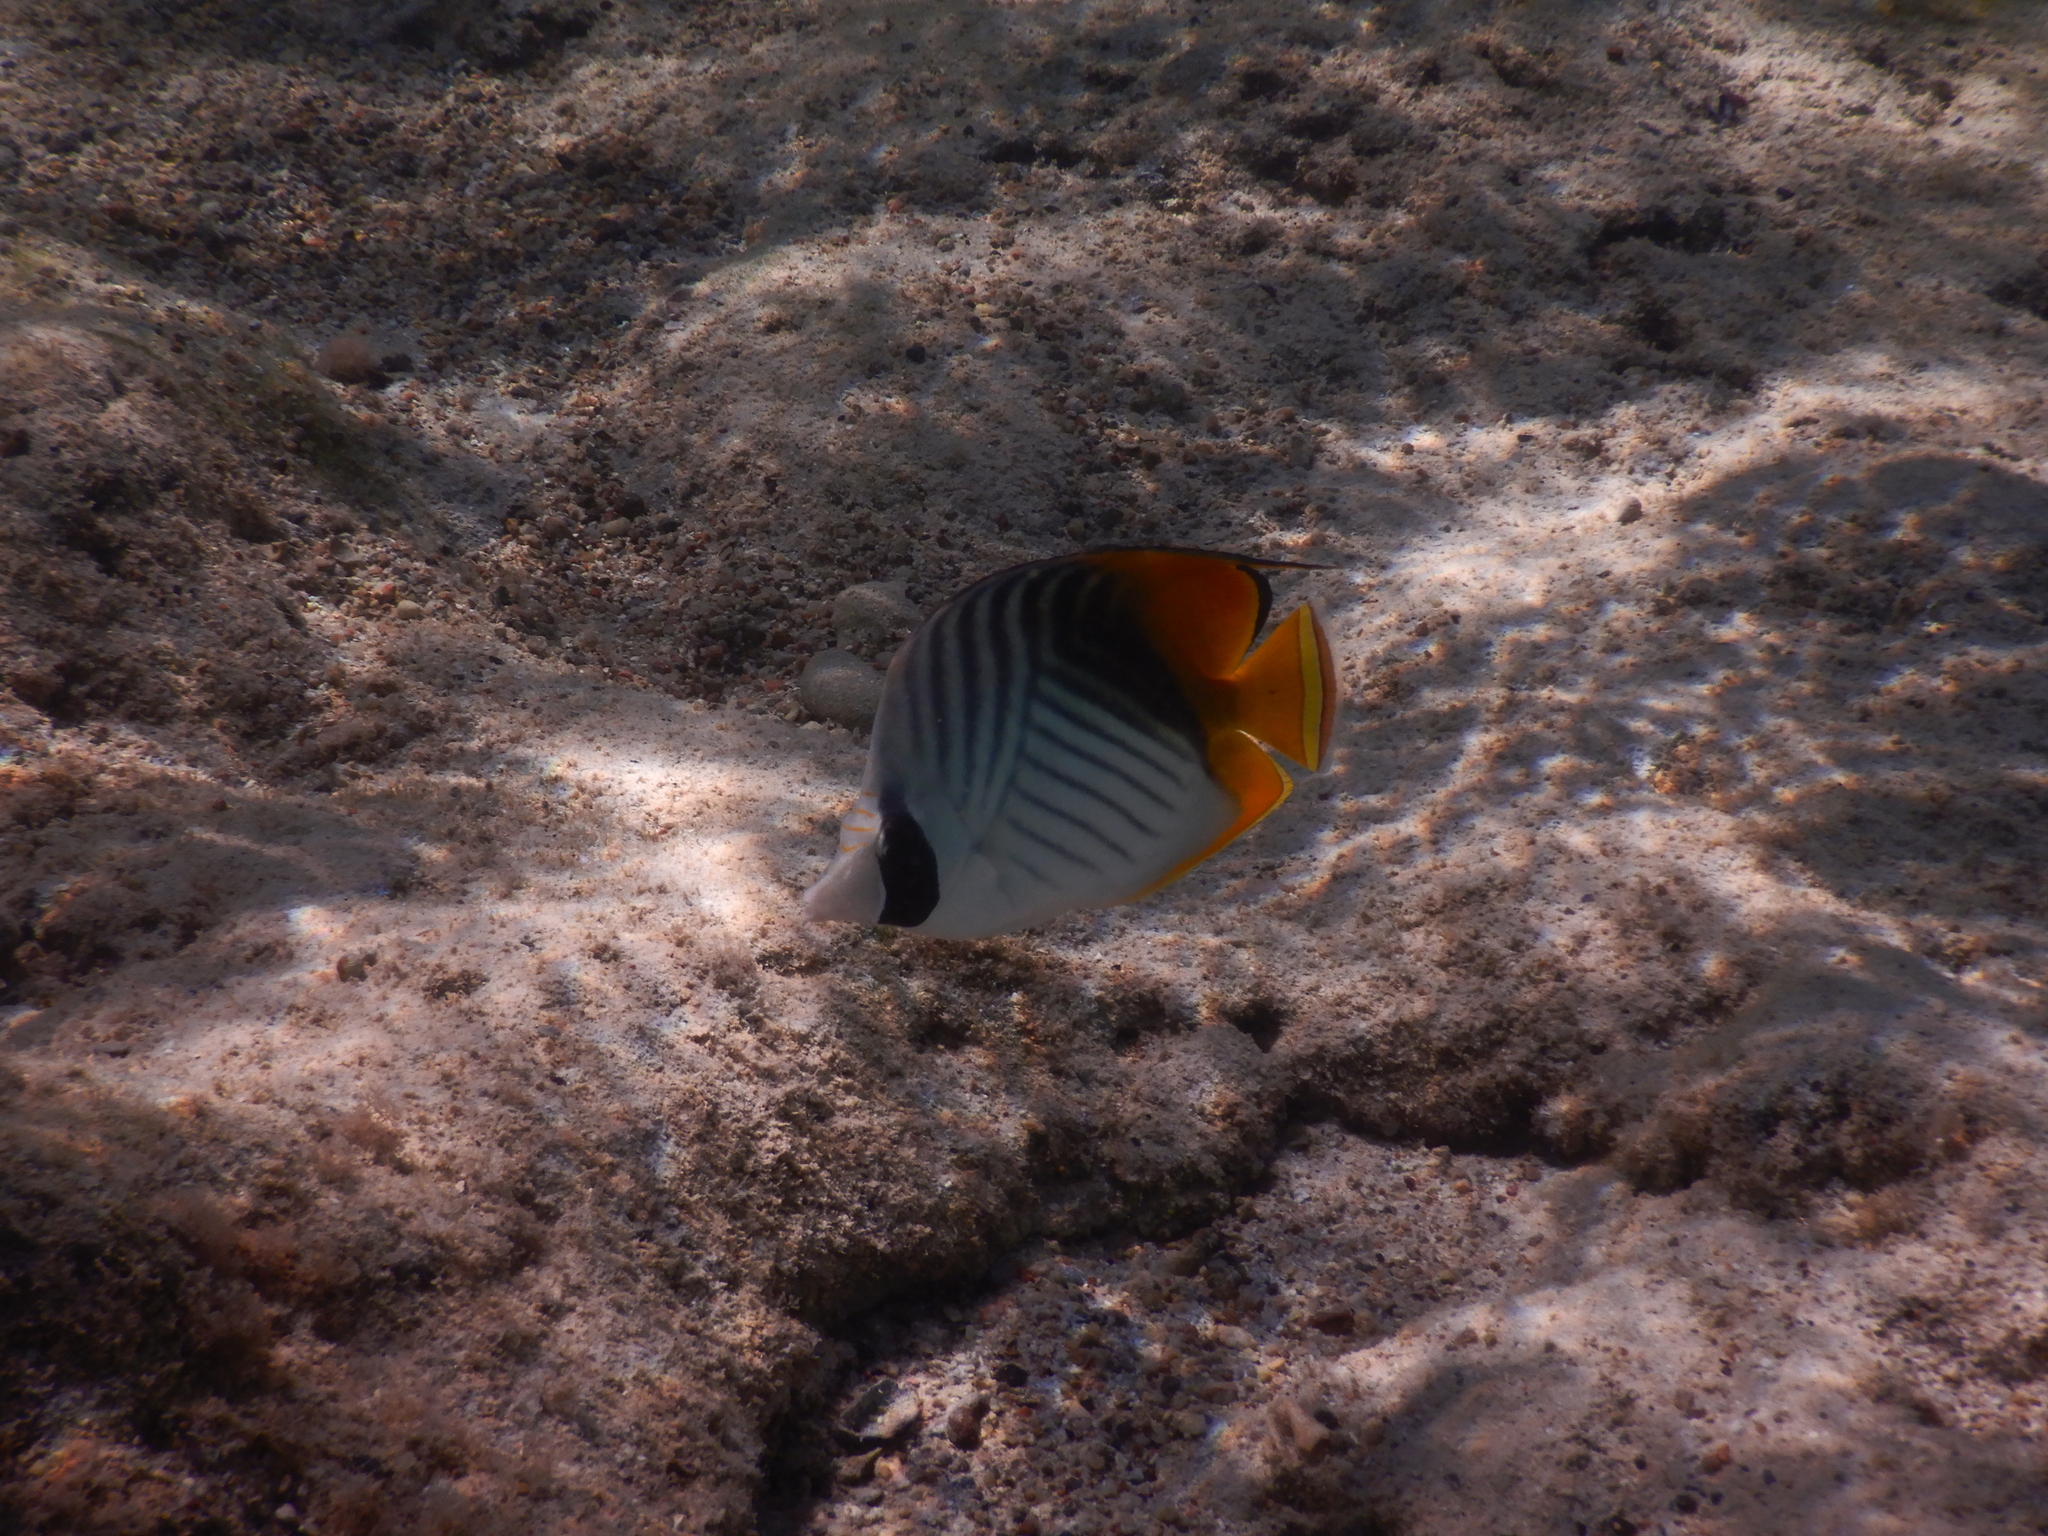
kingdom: Animalia
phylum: Chordata
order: Perciformes
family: Chaetodontidae
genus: Chaetodon
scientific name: Chaetodon auriga
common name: Threadfin butterflyfish
